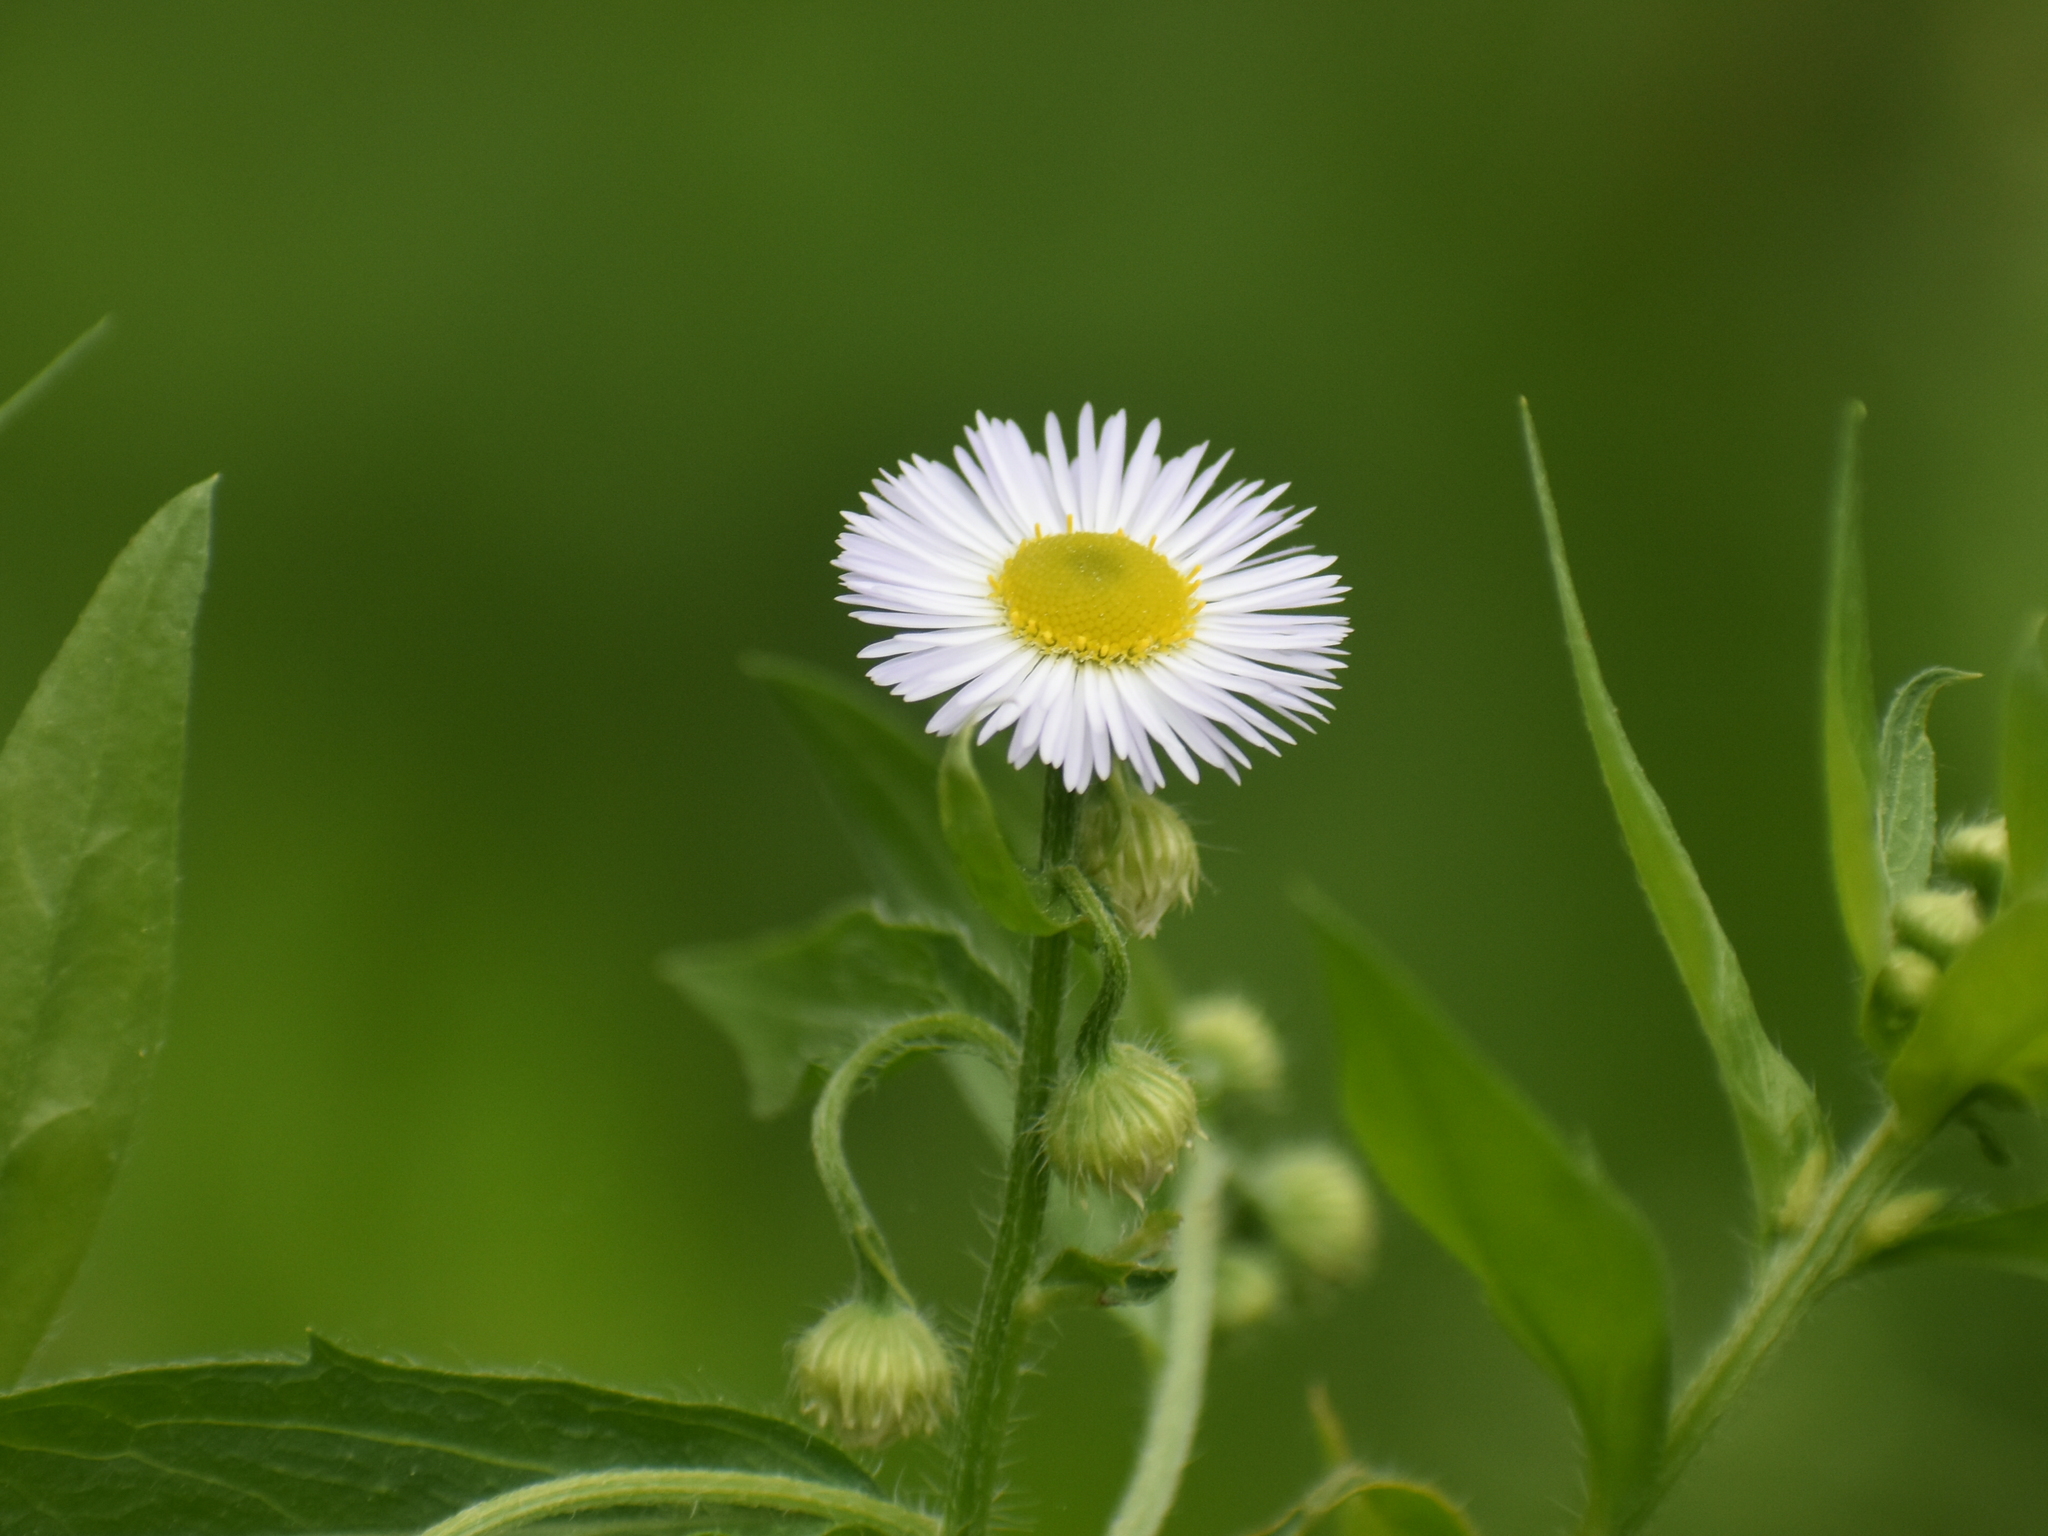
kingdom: Plantae
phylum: Tracheophyta
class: Magnoliopsida
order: Asterales
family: Asteraceae
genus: Erigeron
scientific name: Erigeron annuus
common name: Tall fleabane
